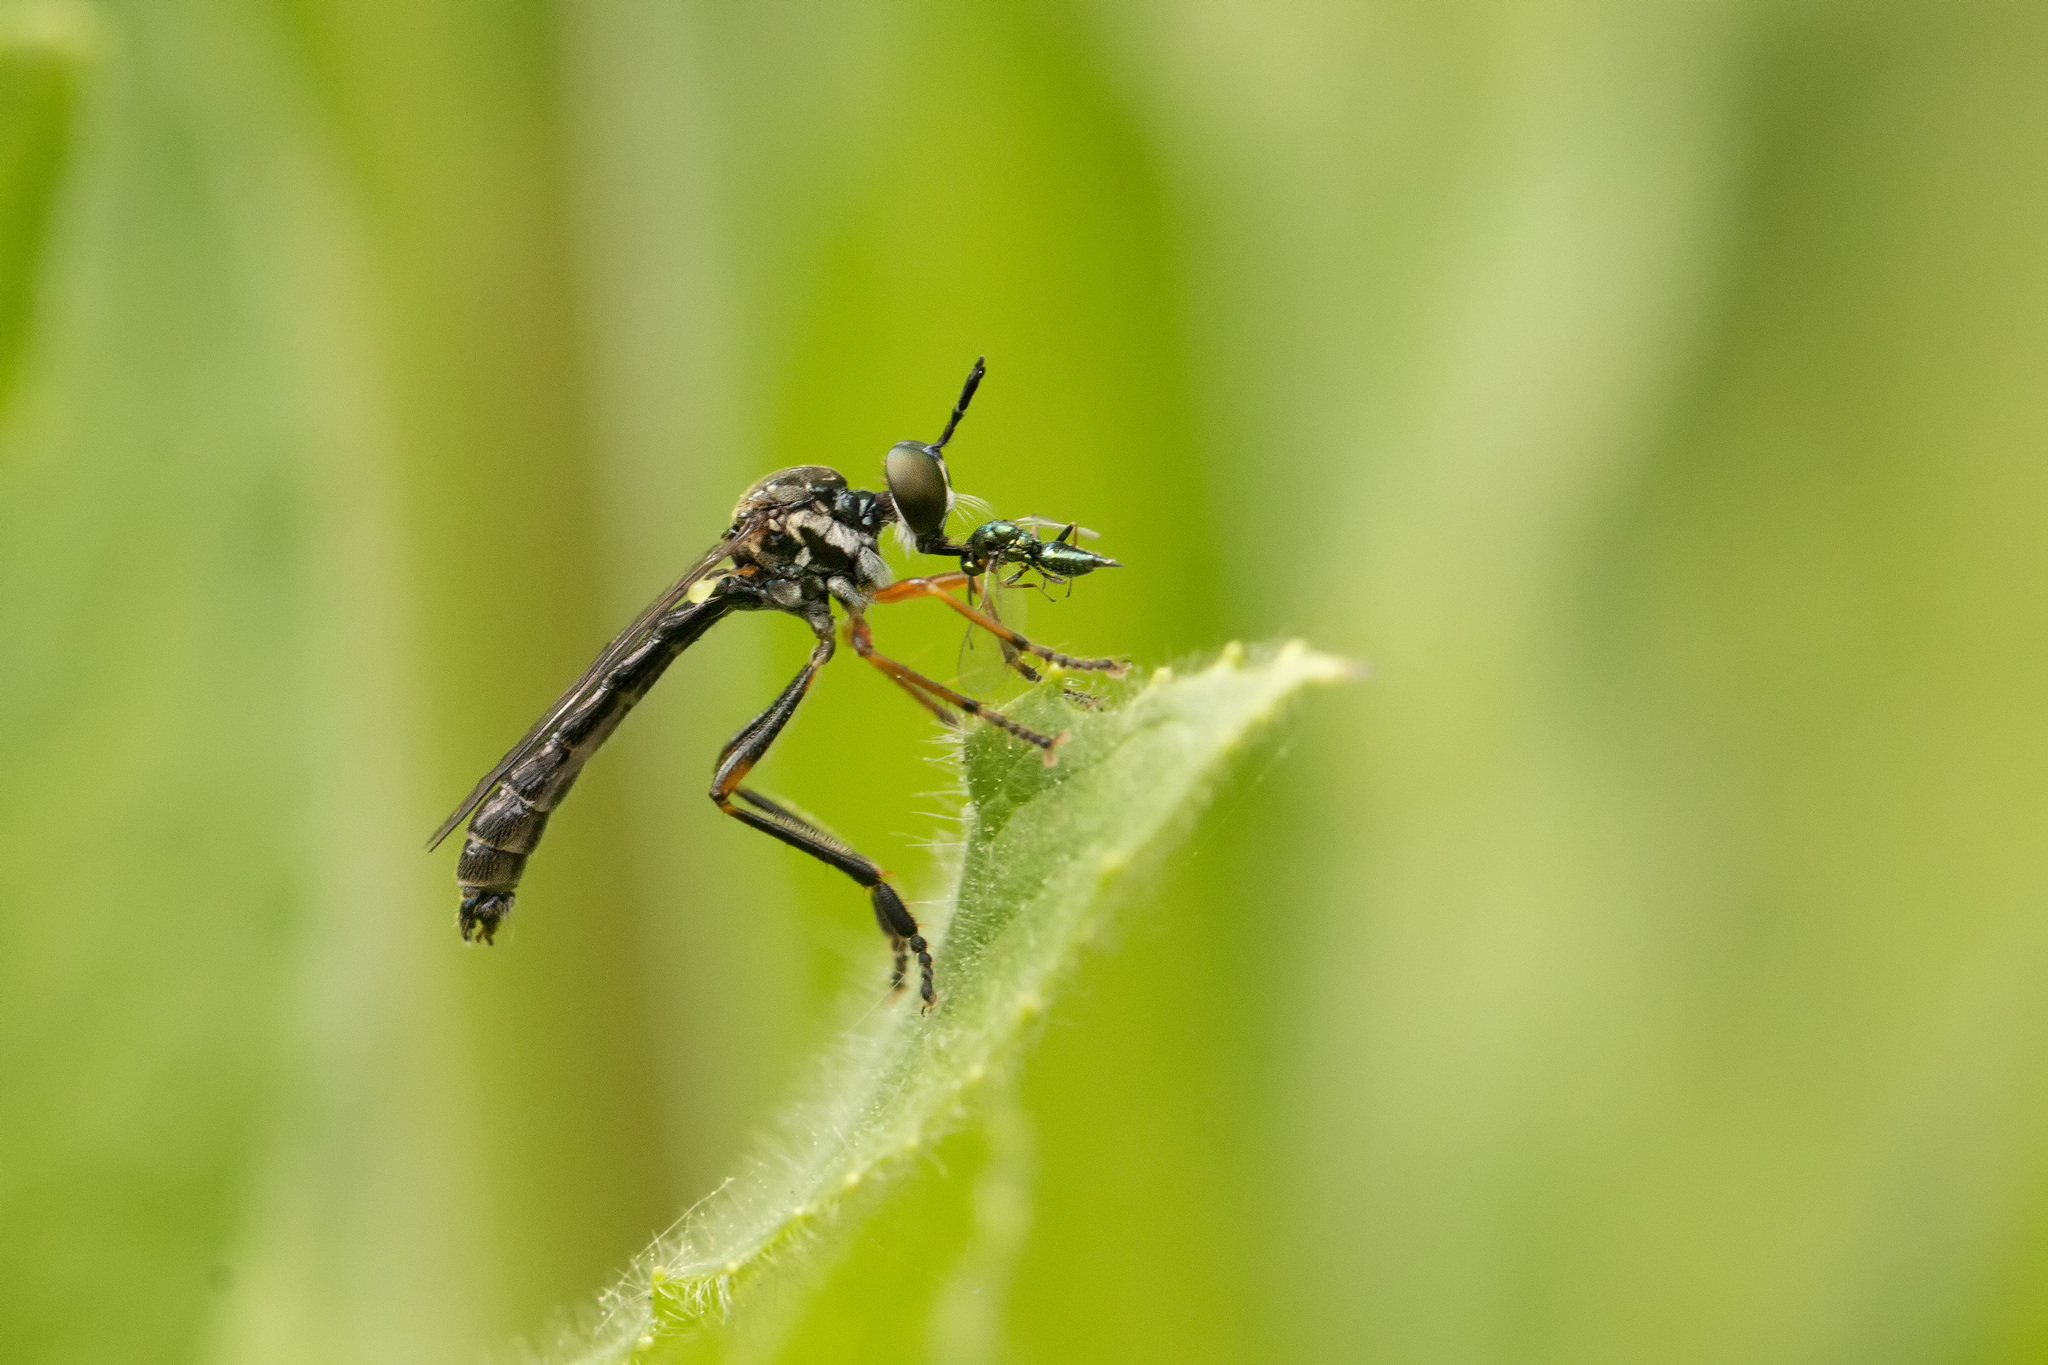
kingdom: Animalia
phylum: Arthropoda
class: Insecta
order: Diptera
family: Asilidae
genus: Dioctria
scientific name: Dioctria hyalipennis
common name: Stripe-legged robberfly
